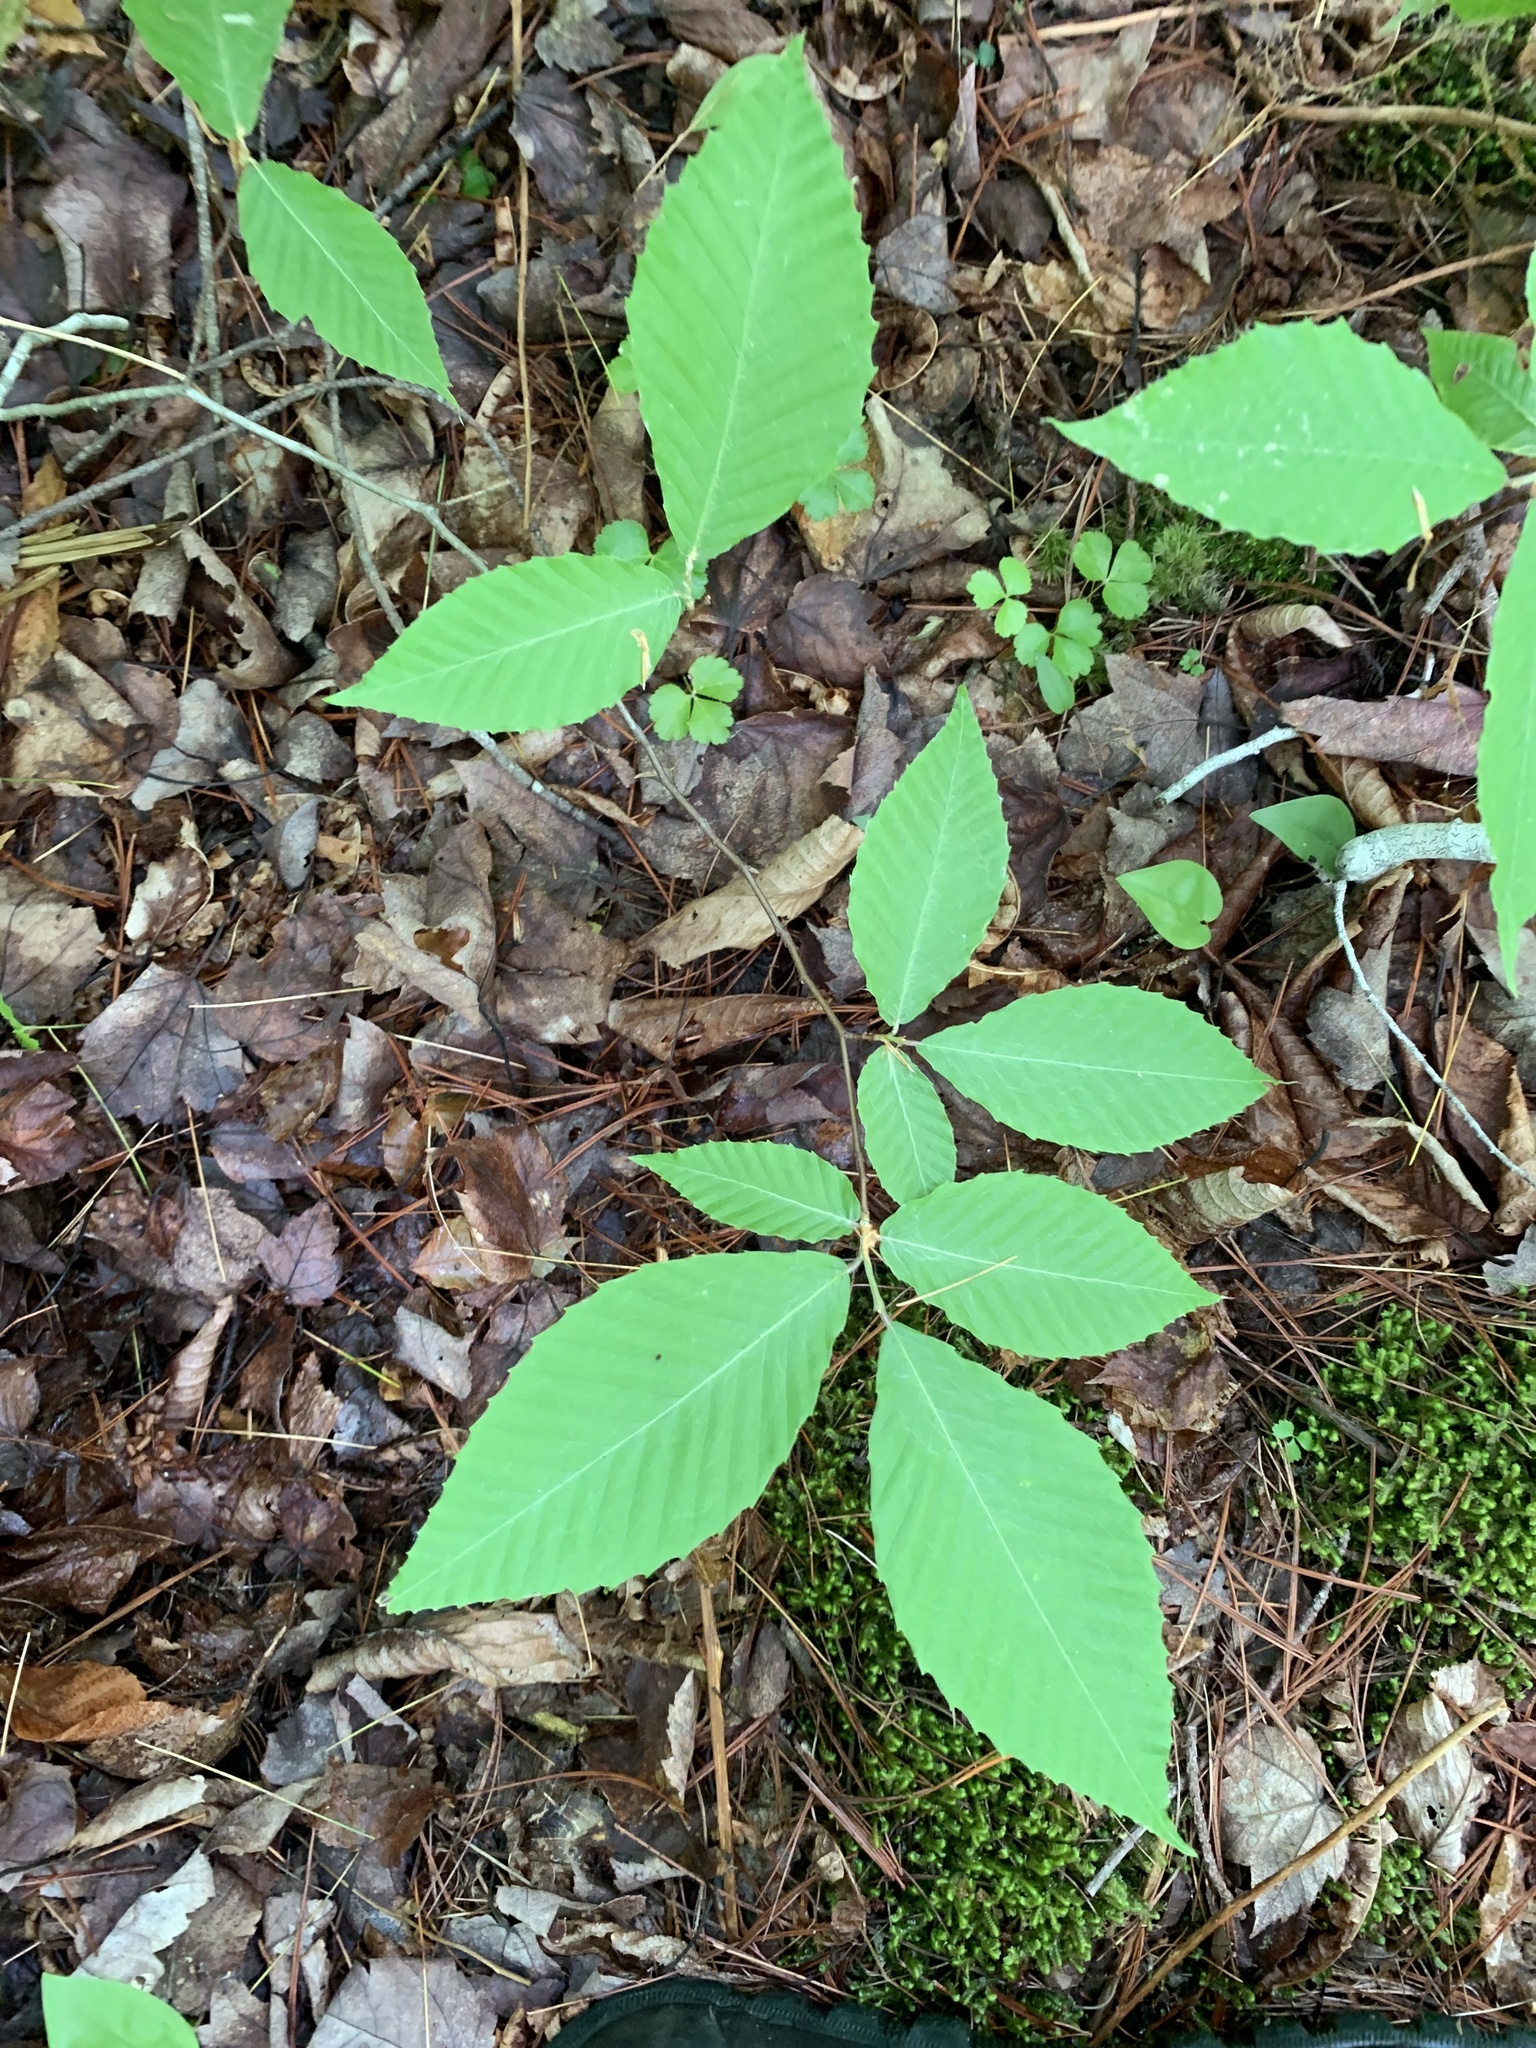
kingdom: Plantae
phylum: Tracheophyta
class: Magnoliopsida
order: Fagales
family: Fagaceae
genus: Fagus
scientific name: Fagus grandifolia
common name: American beech
